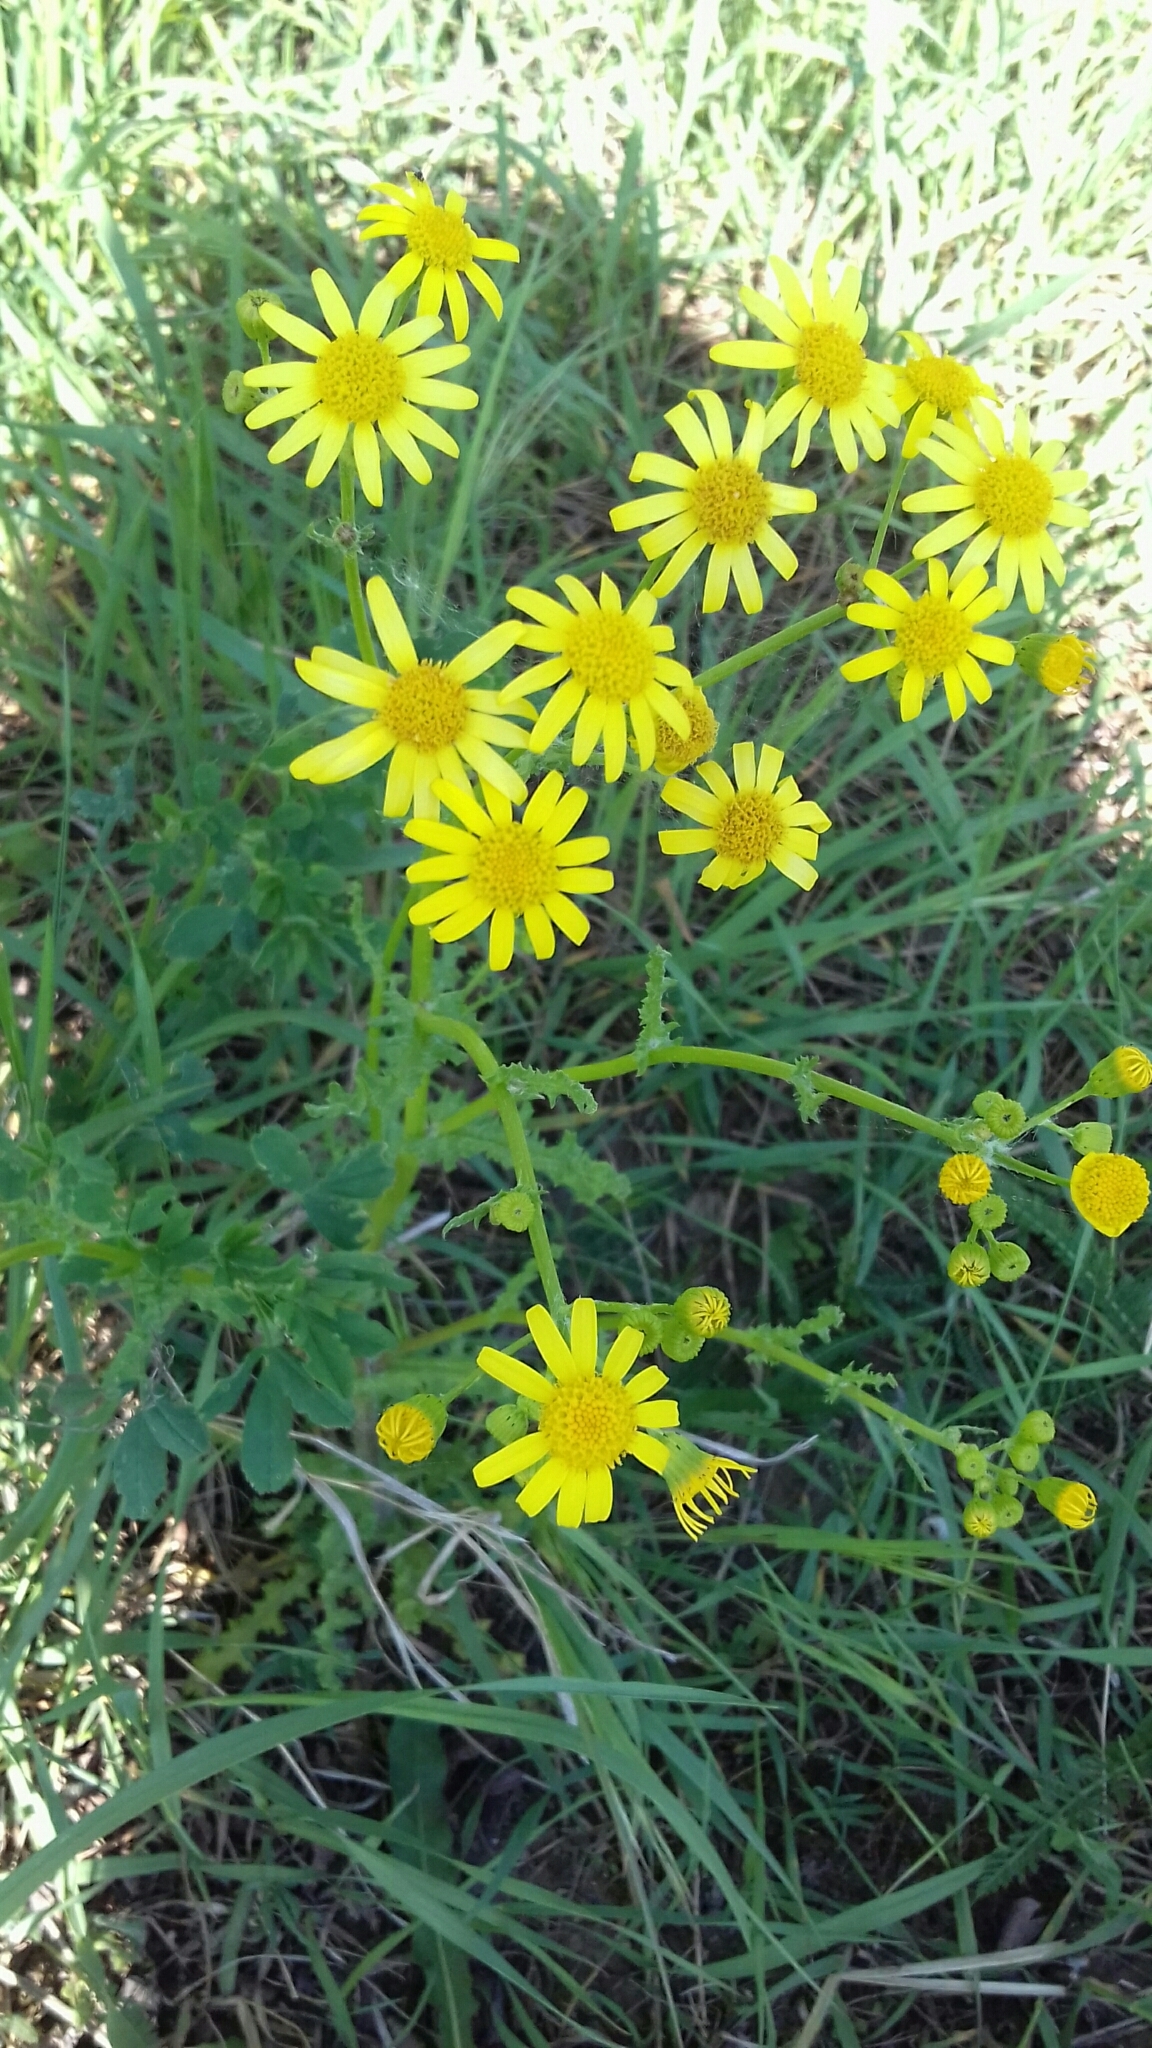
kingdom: Plantae
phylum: Tracheophyta
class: Magnoliopsida
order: Asterales
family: Asteraceae
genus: Senecio
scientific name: Senecio vernalis
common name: Eastern groundsel
